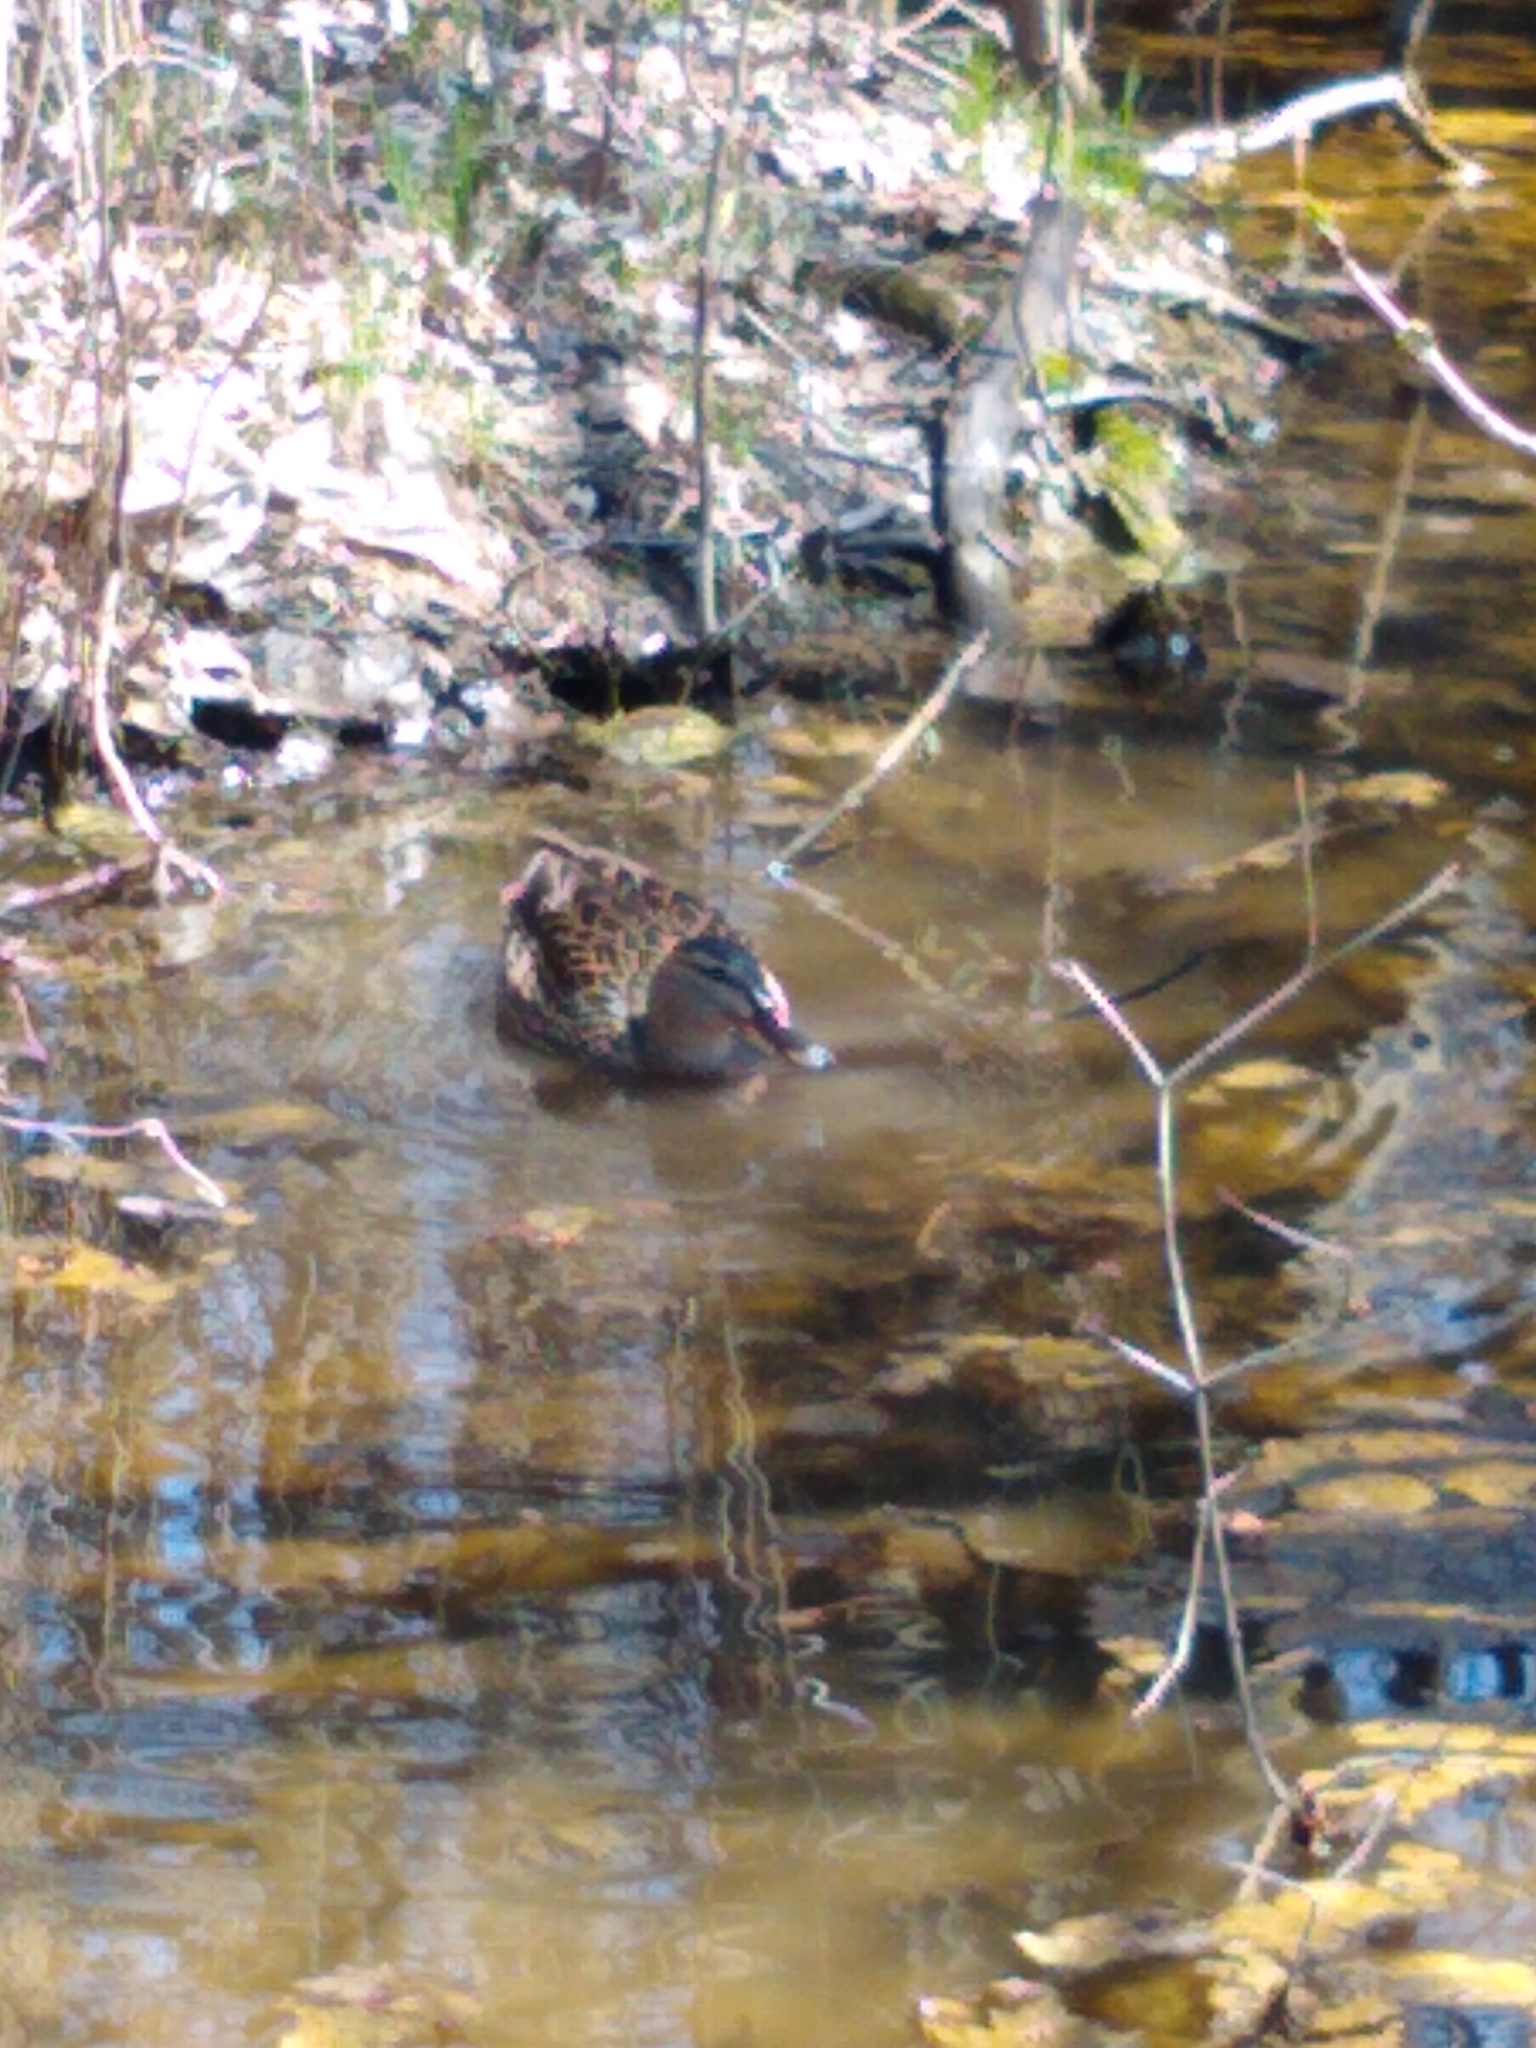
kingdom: Animalia
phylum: Chordata
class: Aves
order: Anseriformes
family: Anatidae
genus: Anas
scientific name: Anas platyrhynchos
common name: Mallard
